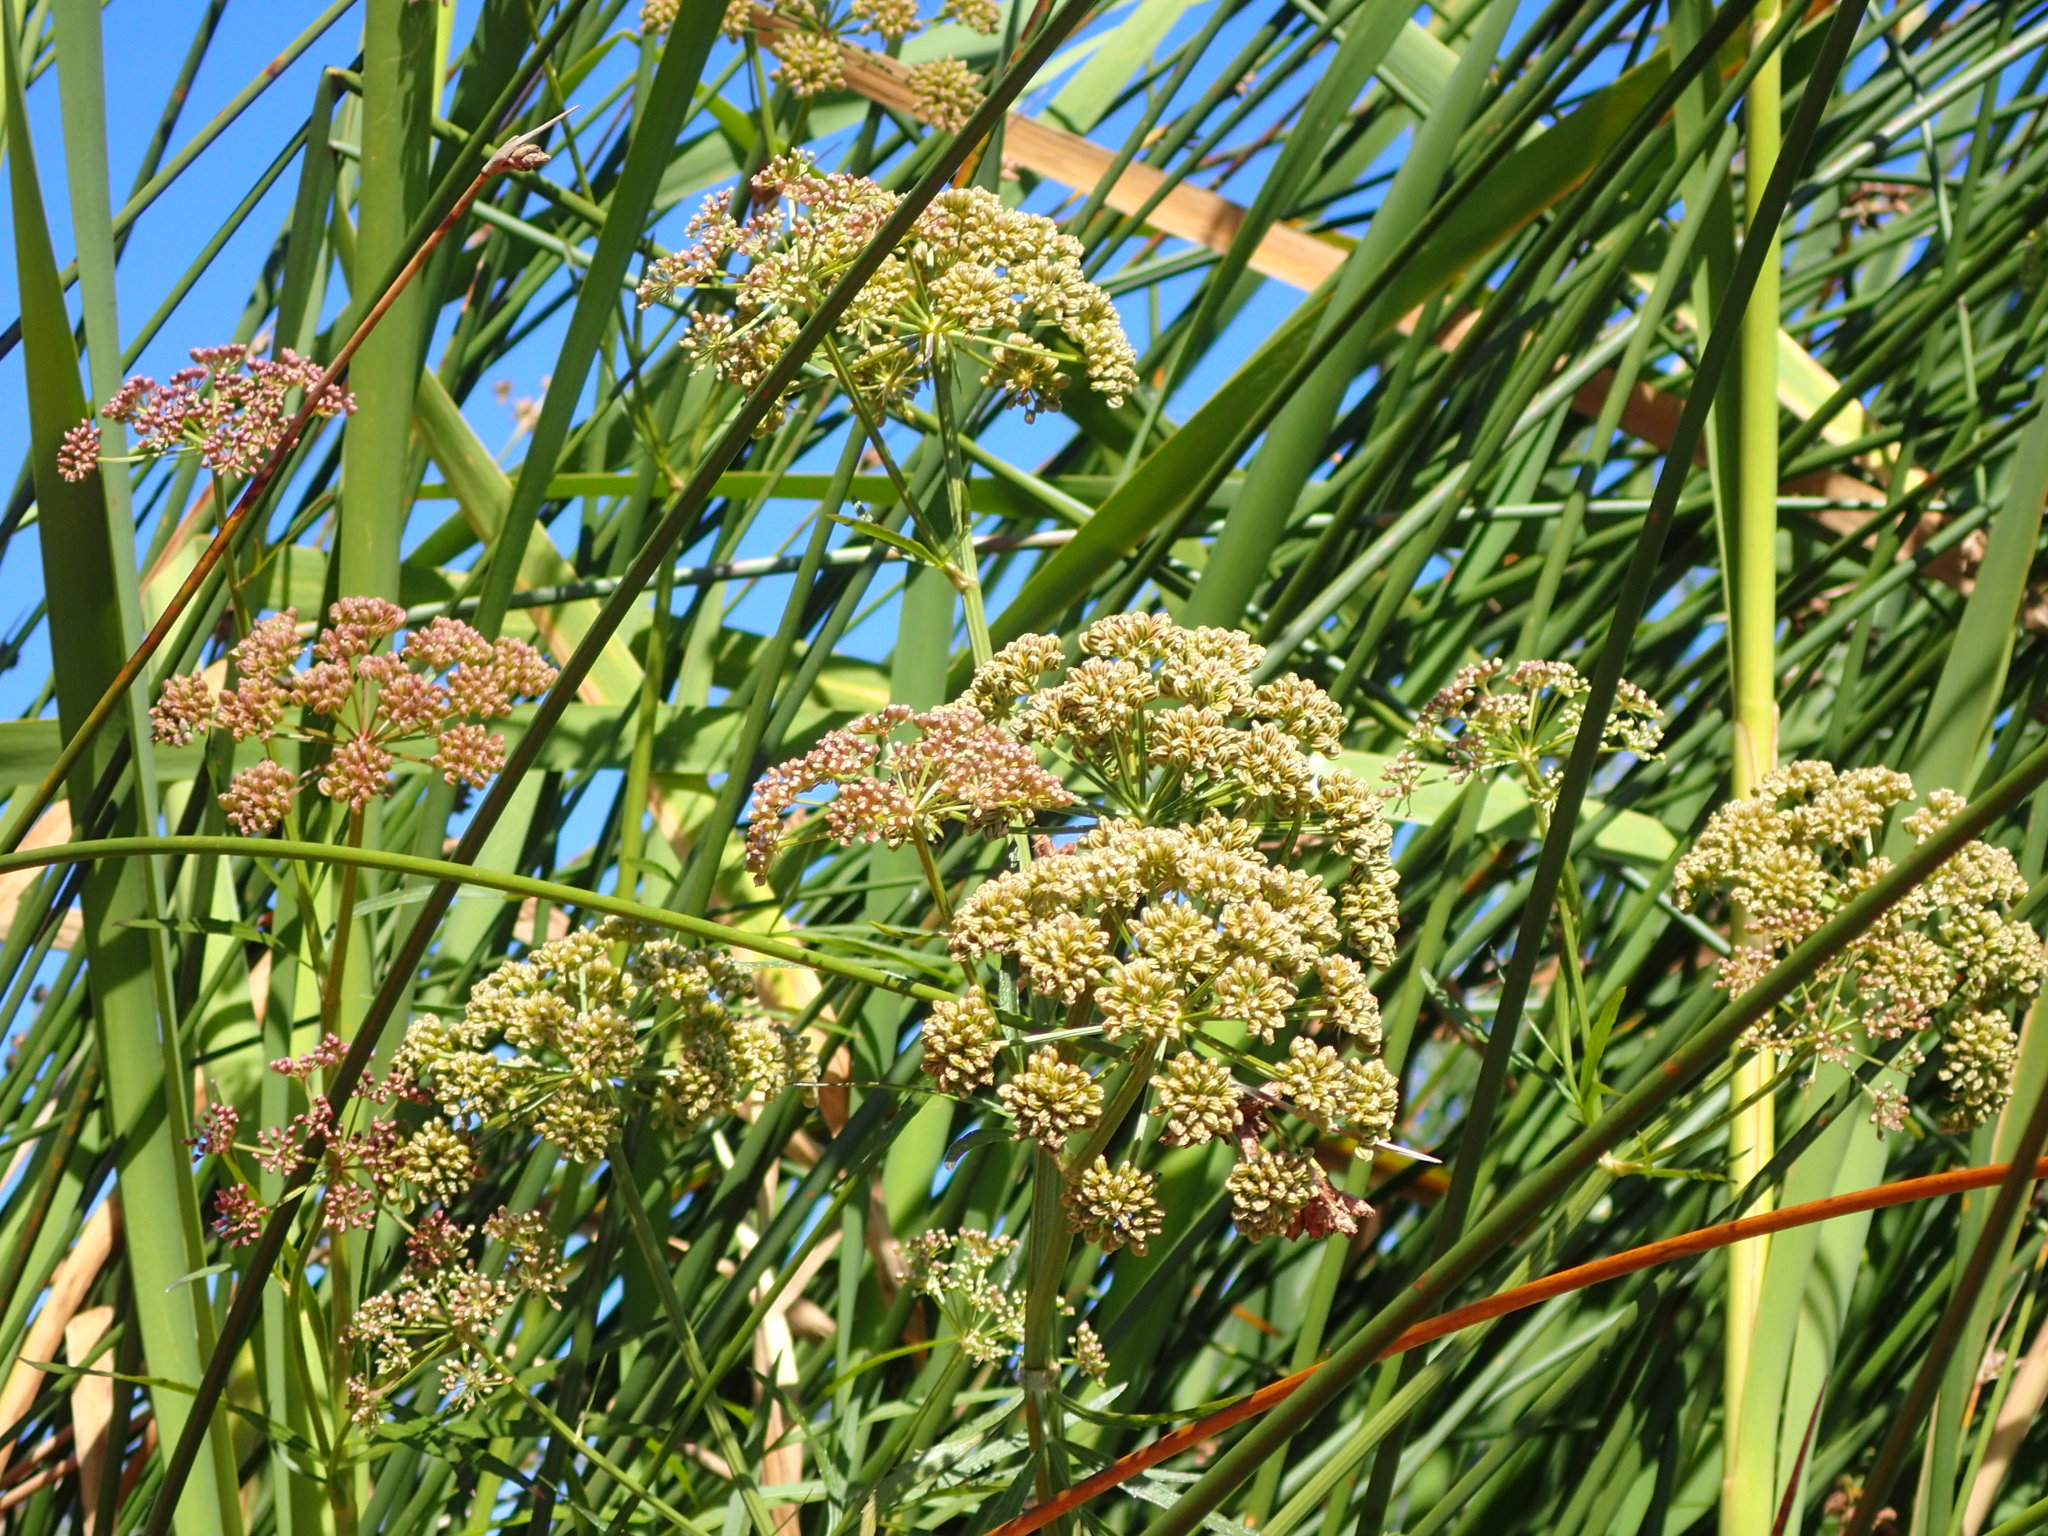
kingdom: Plantae
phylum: Tracheophyta
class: Magnoliopsida
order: Apiales
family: Apiaceae
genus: Sium
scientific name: Sium suave
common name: Hemlock water-parsnip
